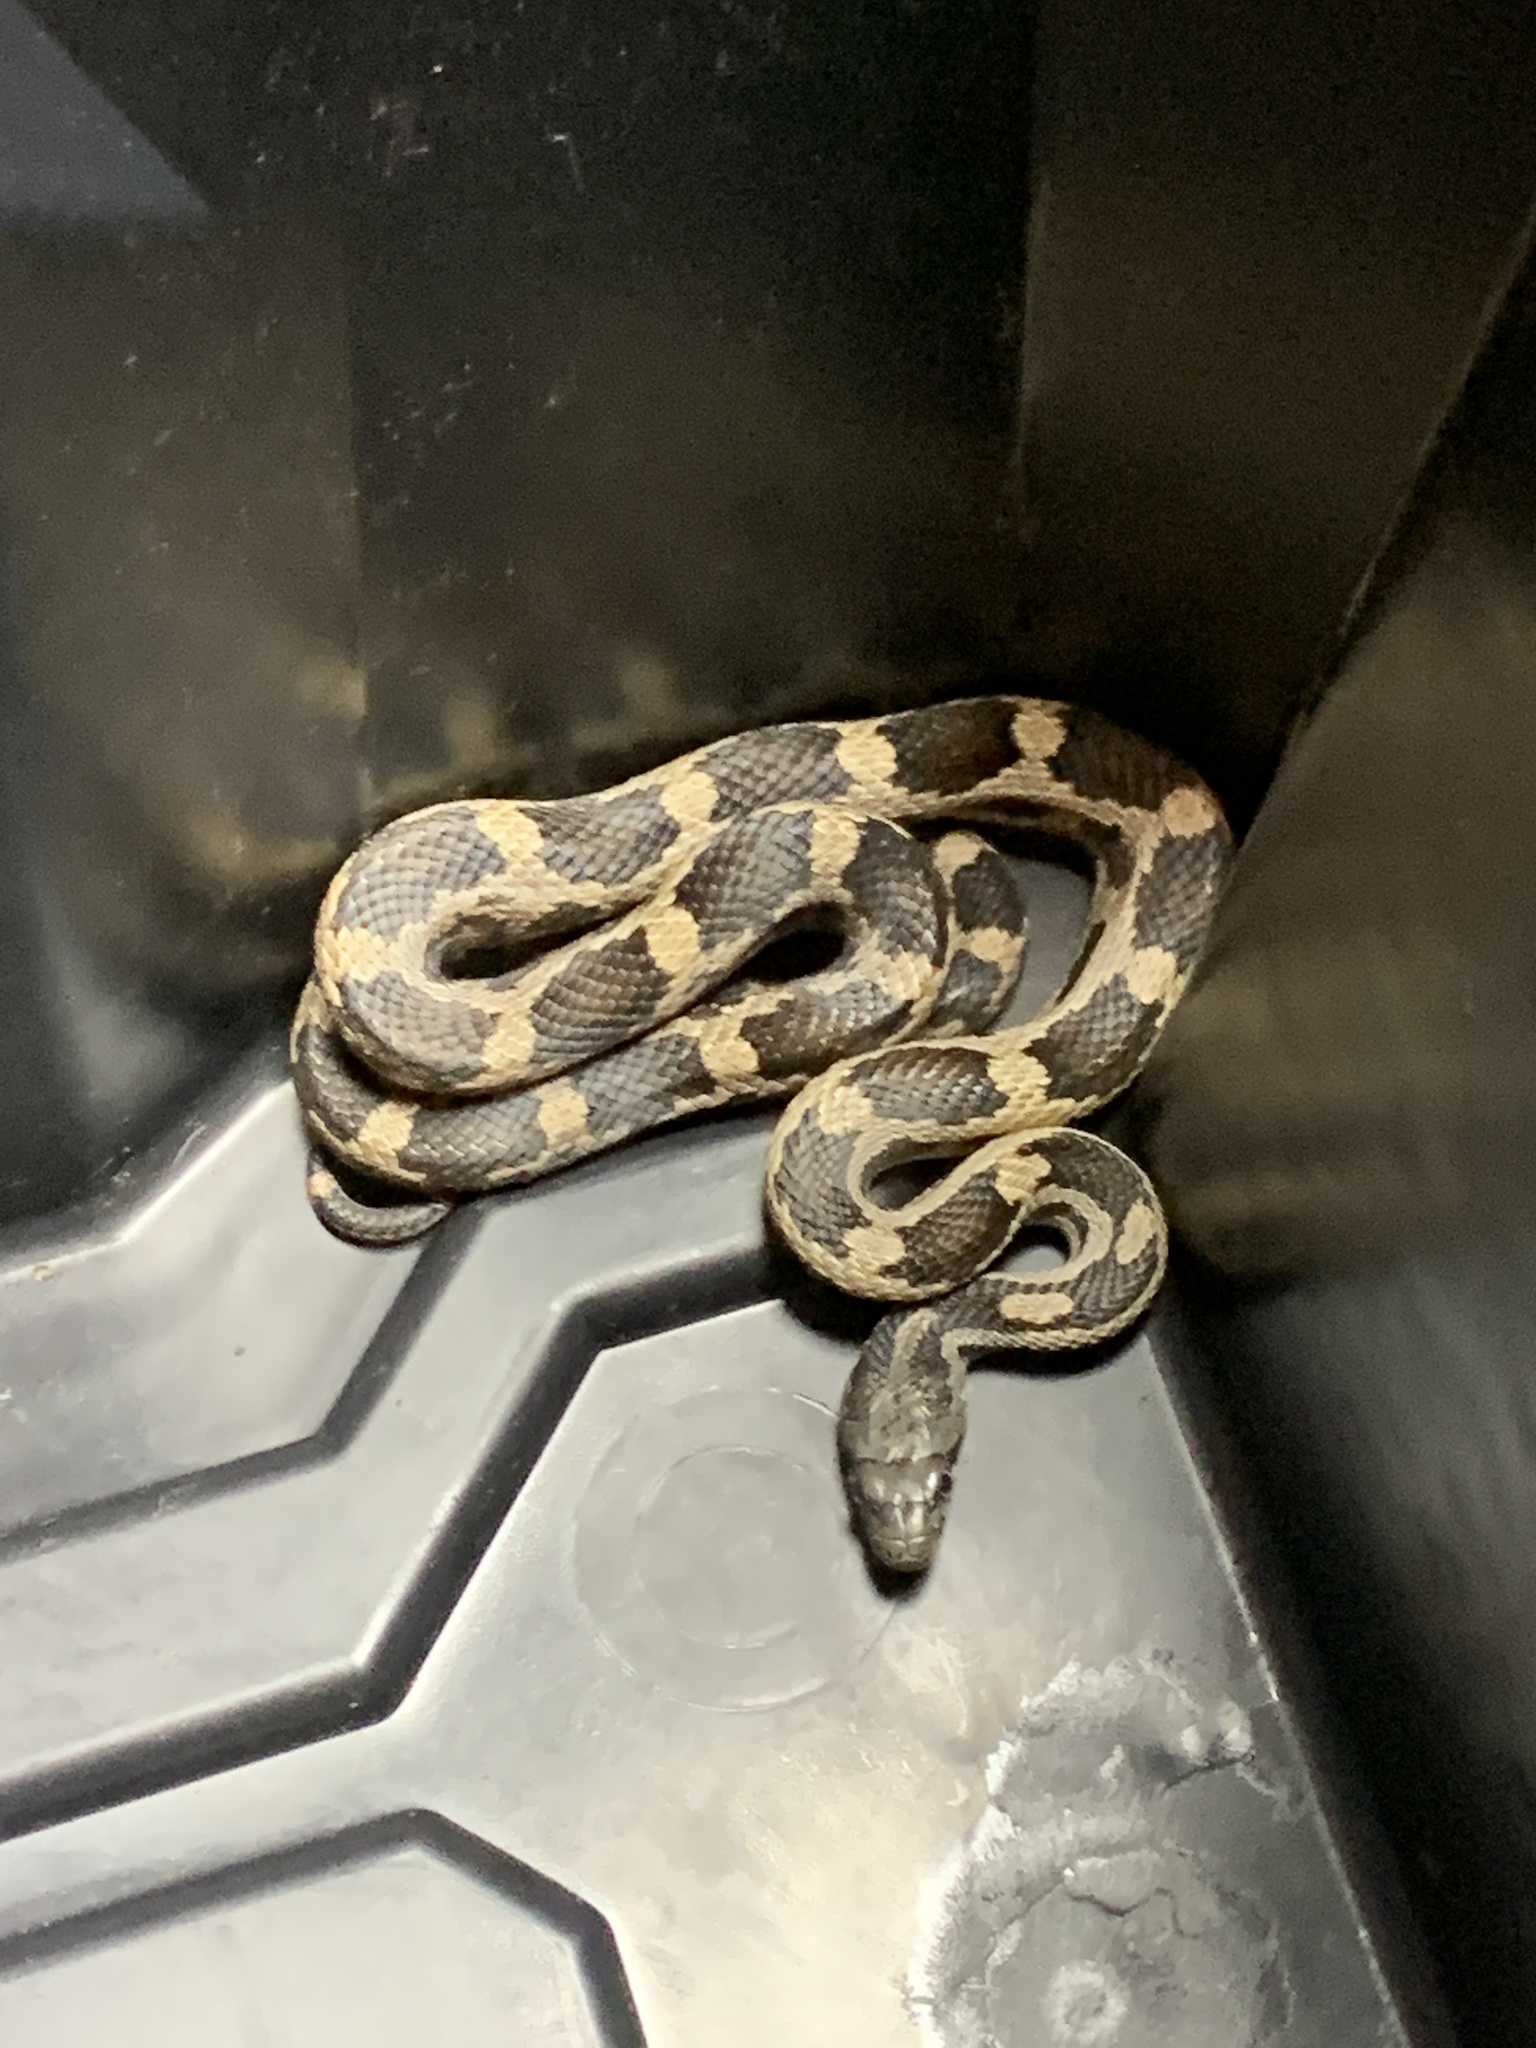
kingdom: Animalia
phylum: Chordata
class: Squamata
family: Colubridae
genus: Pantherophis
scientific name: Pantherophis spiloides
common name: Gray rat snake
